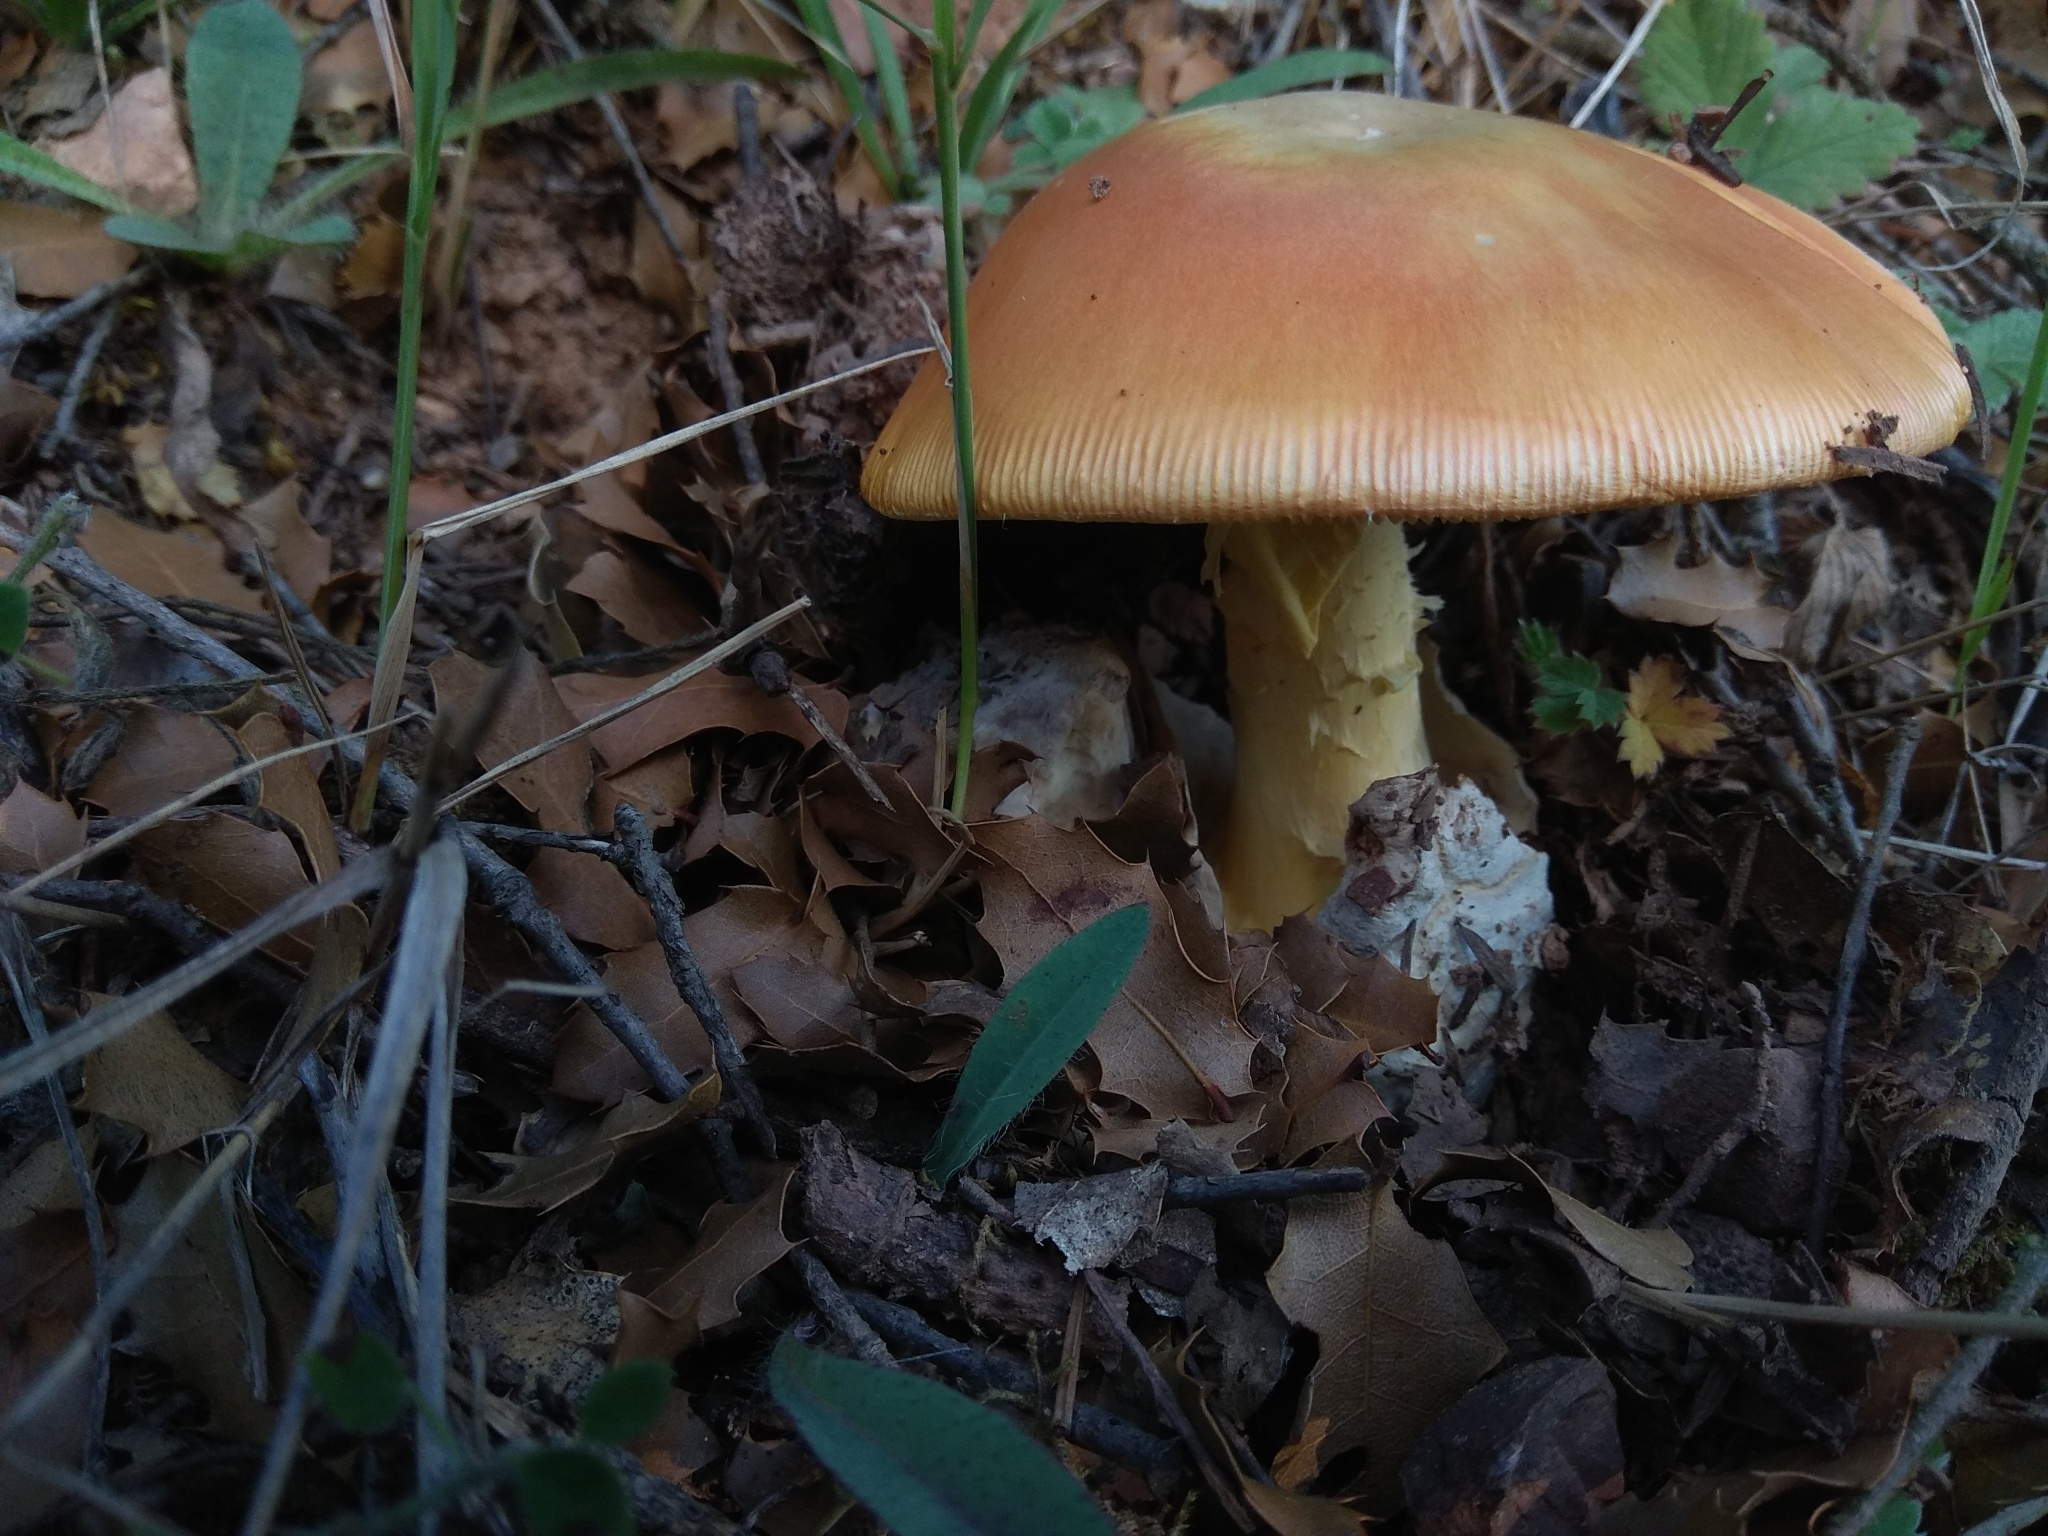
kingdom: Fungi
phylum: Basidiomycota
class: Agaricomycetes
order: Agaricales
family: Amanitaceae
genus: Amanita
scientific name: Amanita caesarea
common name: Caesar's amanita
